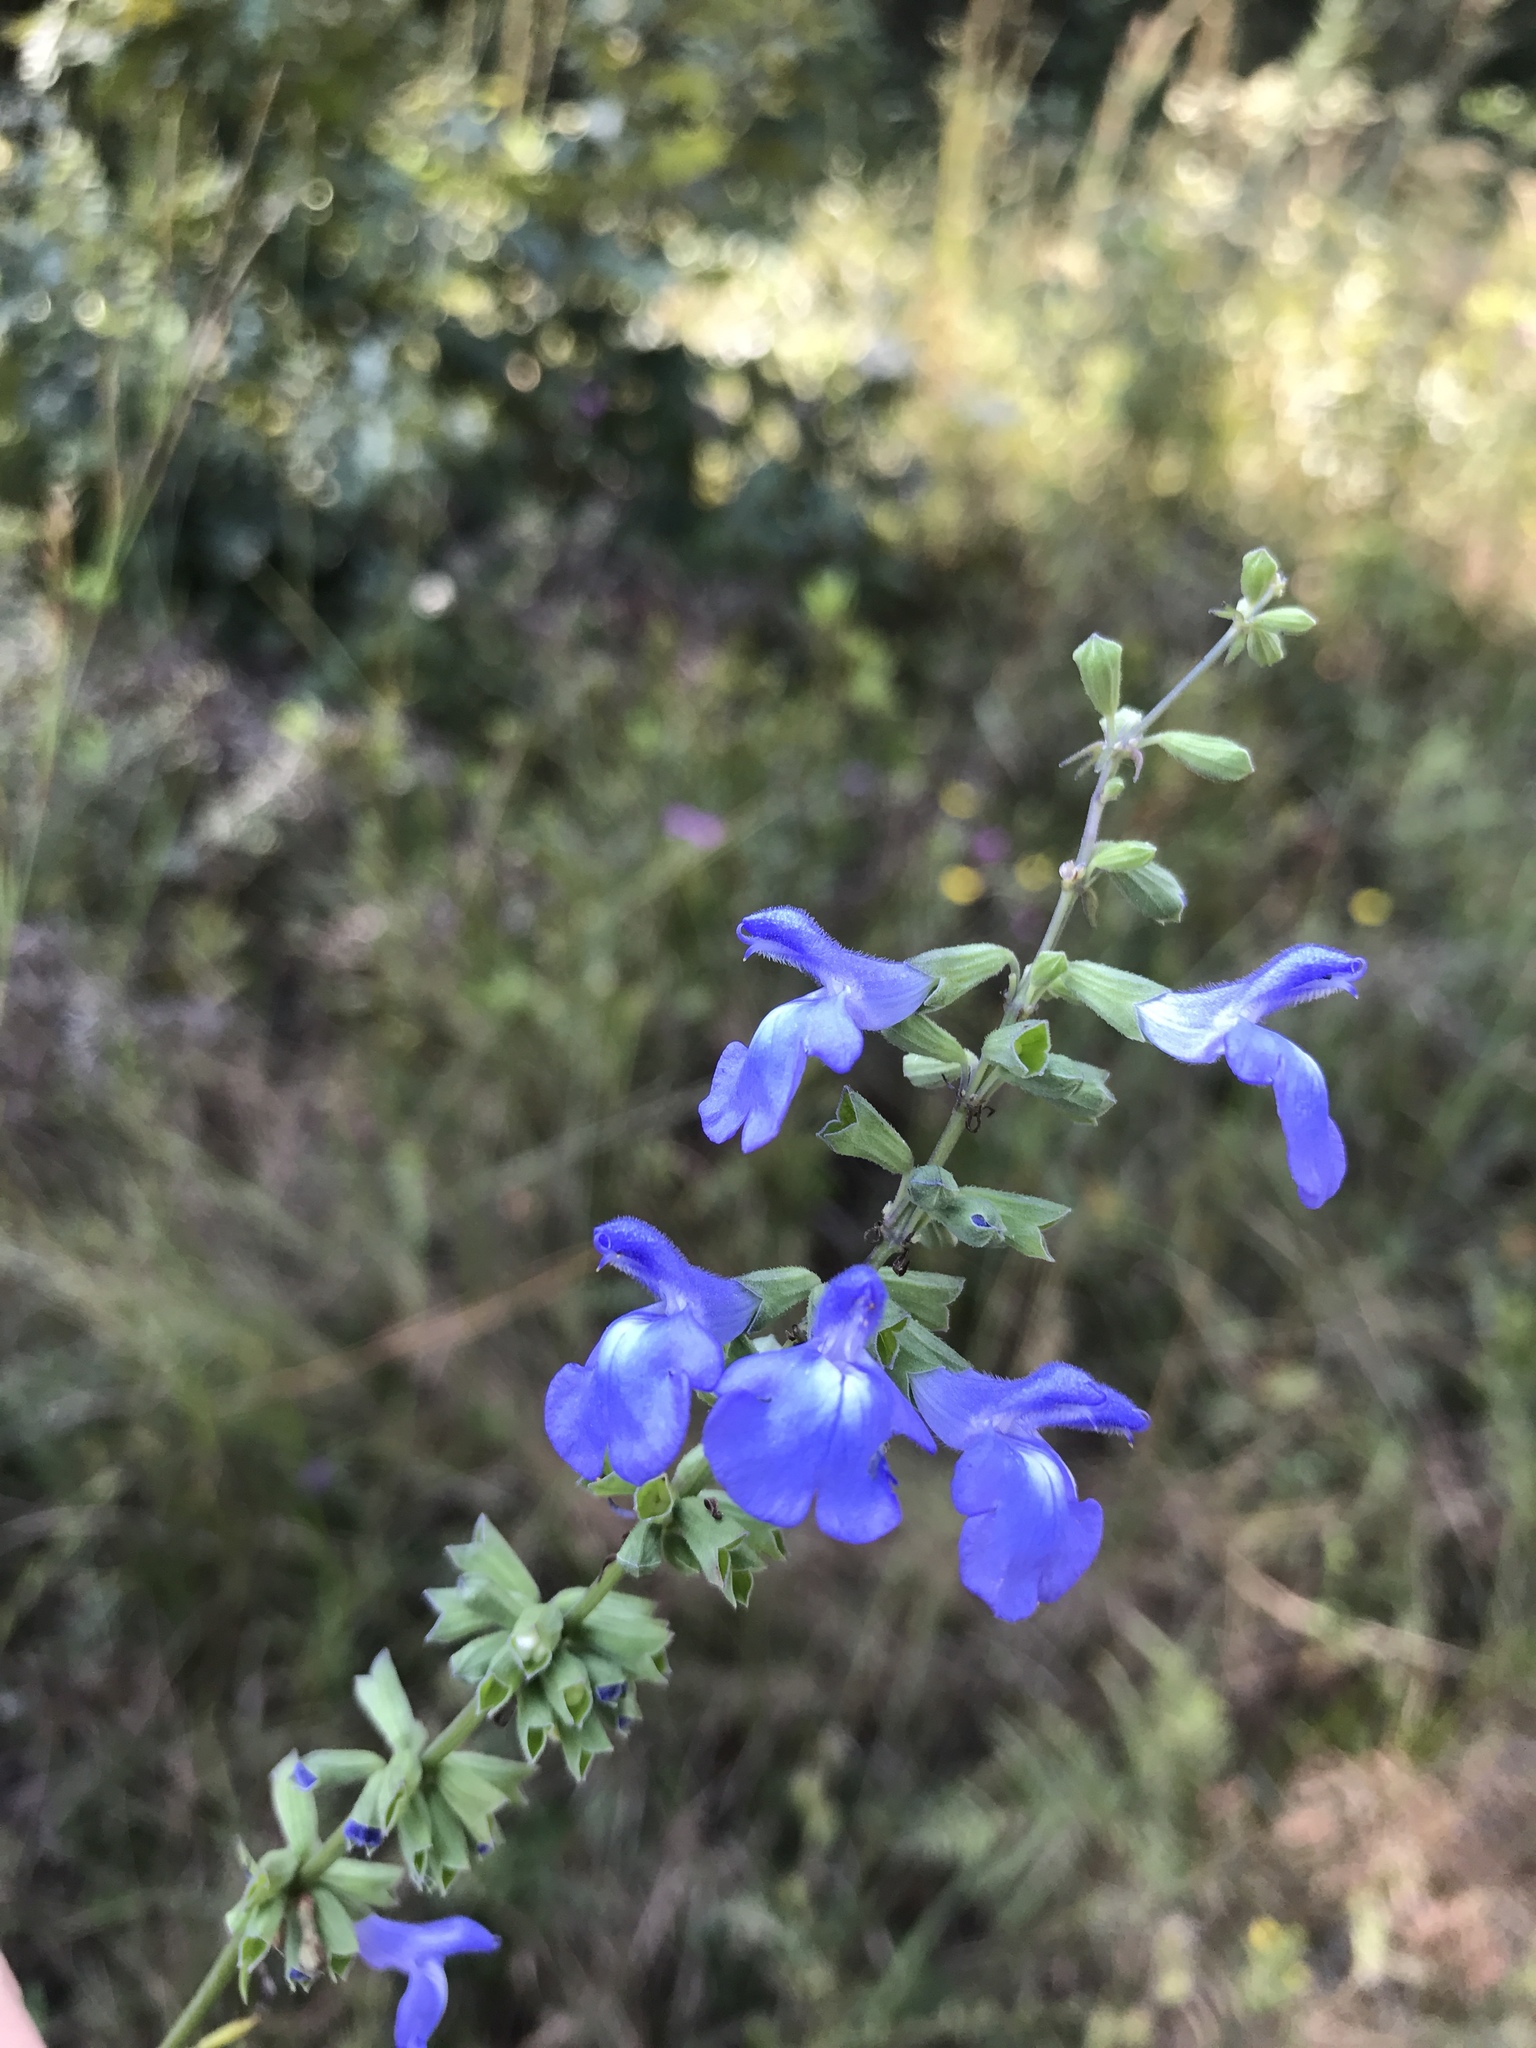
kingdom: Plantae
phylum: Tracheophyta
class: Magnoliopsida
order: Lamiales
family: Lamiaceae
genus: Salvia
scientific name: Salvia azurea
